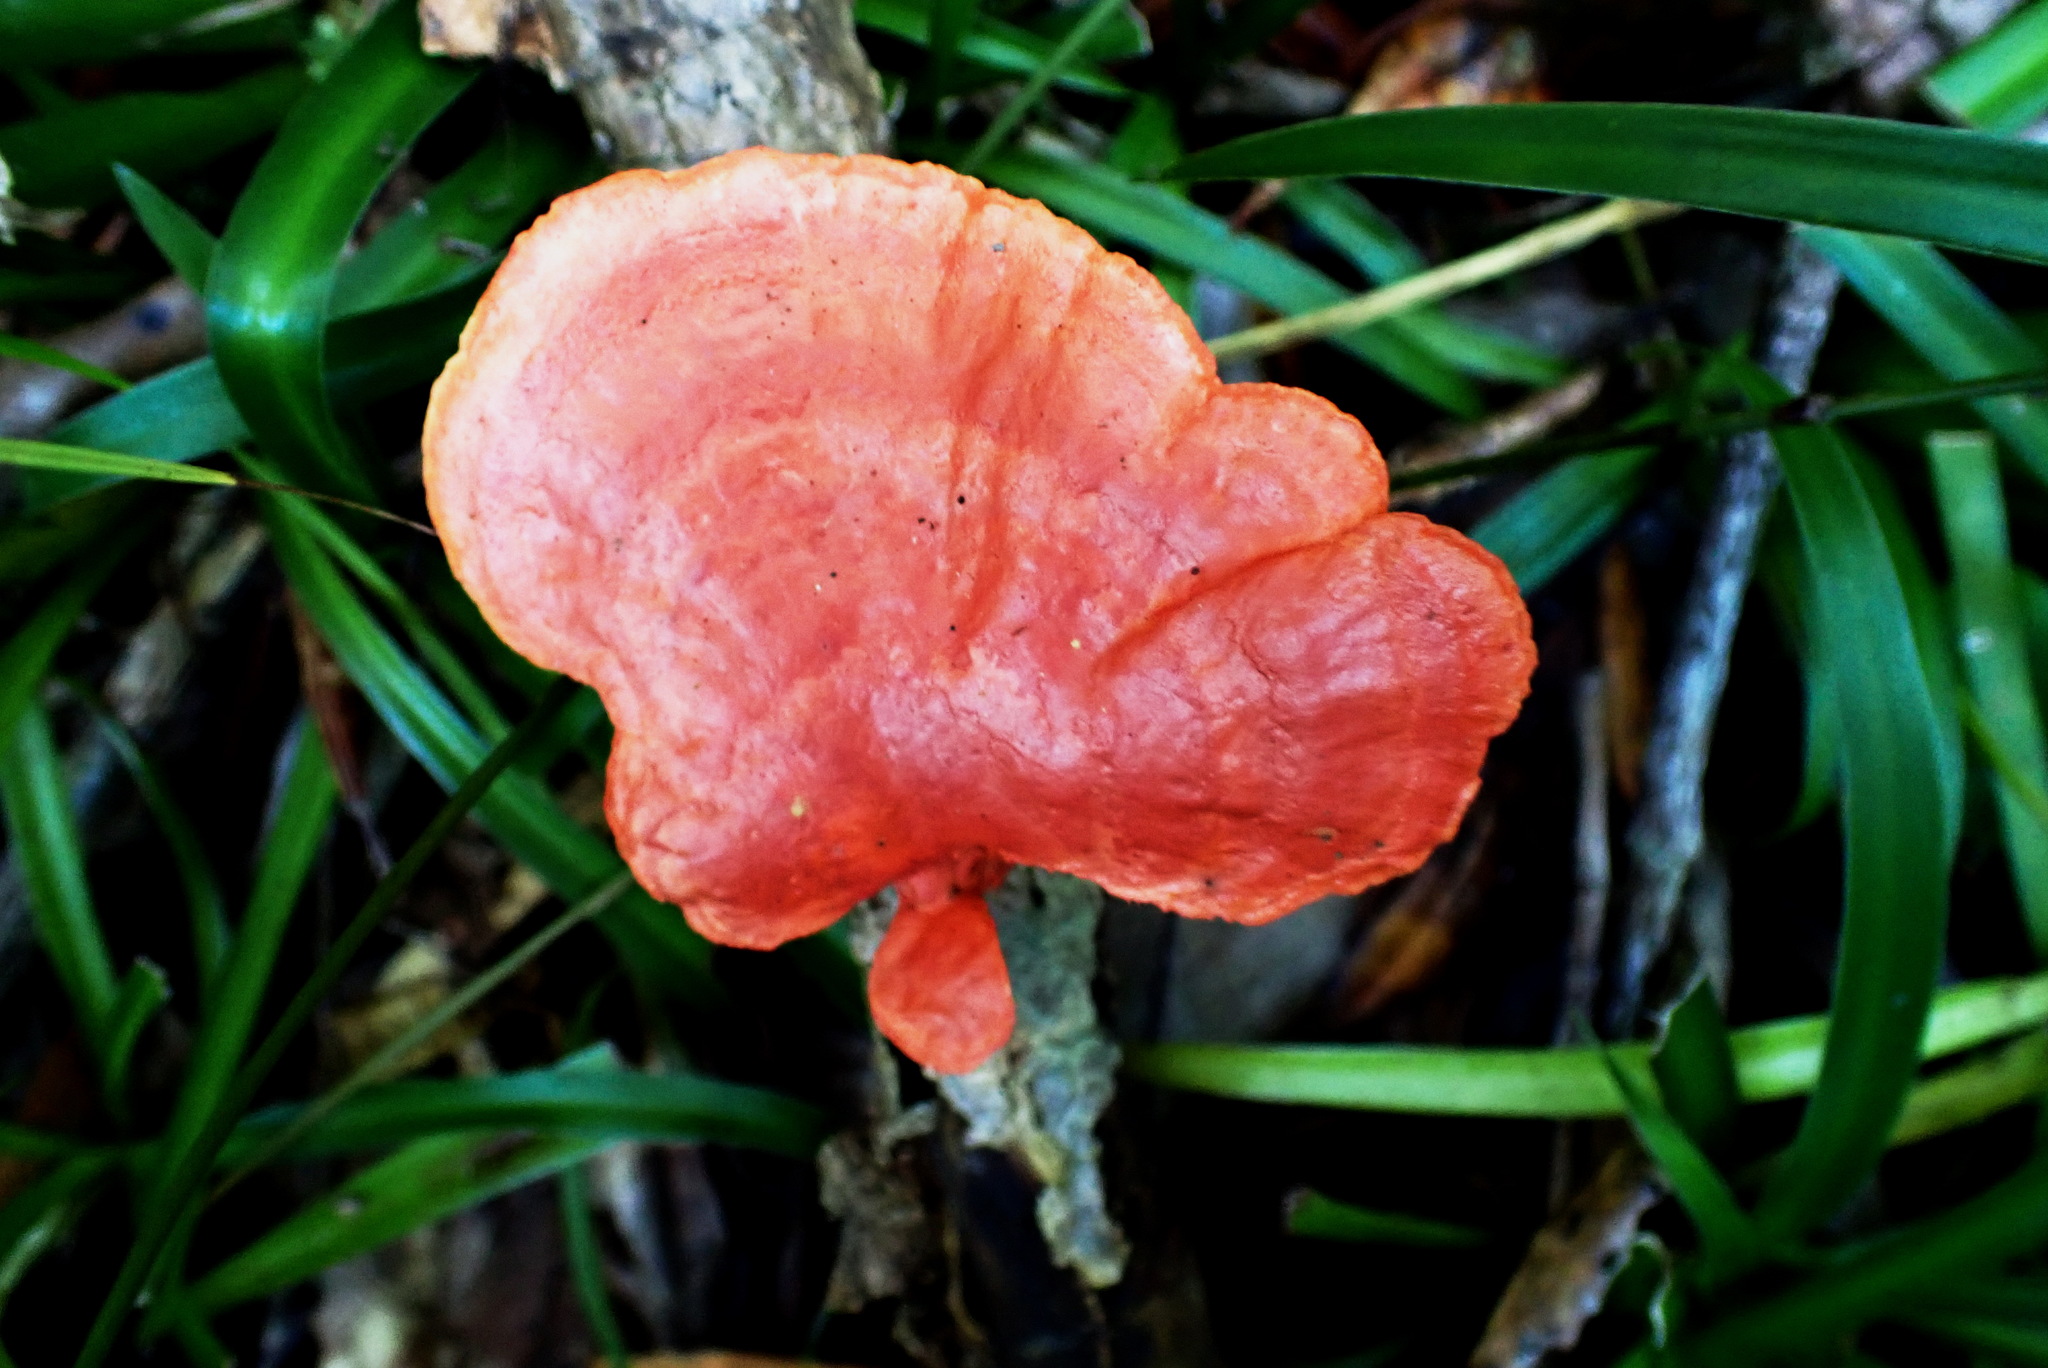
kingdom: Fungi
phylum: Basidiomycota
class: Agaricomycetes
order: Polyporales
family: Polyporaceae
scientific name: Polyporaceae
